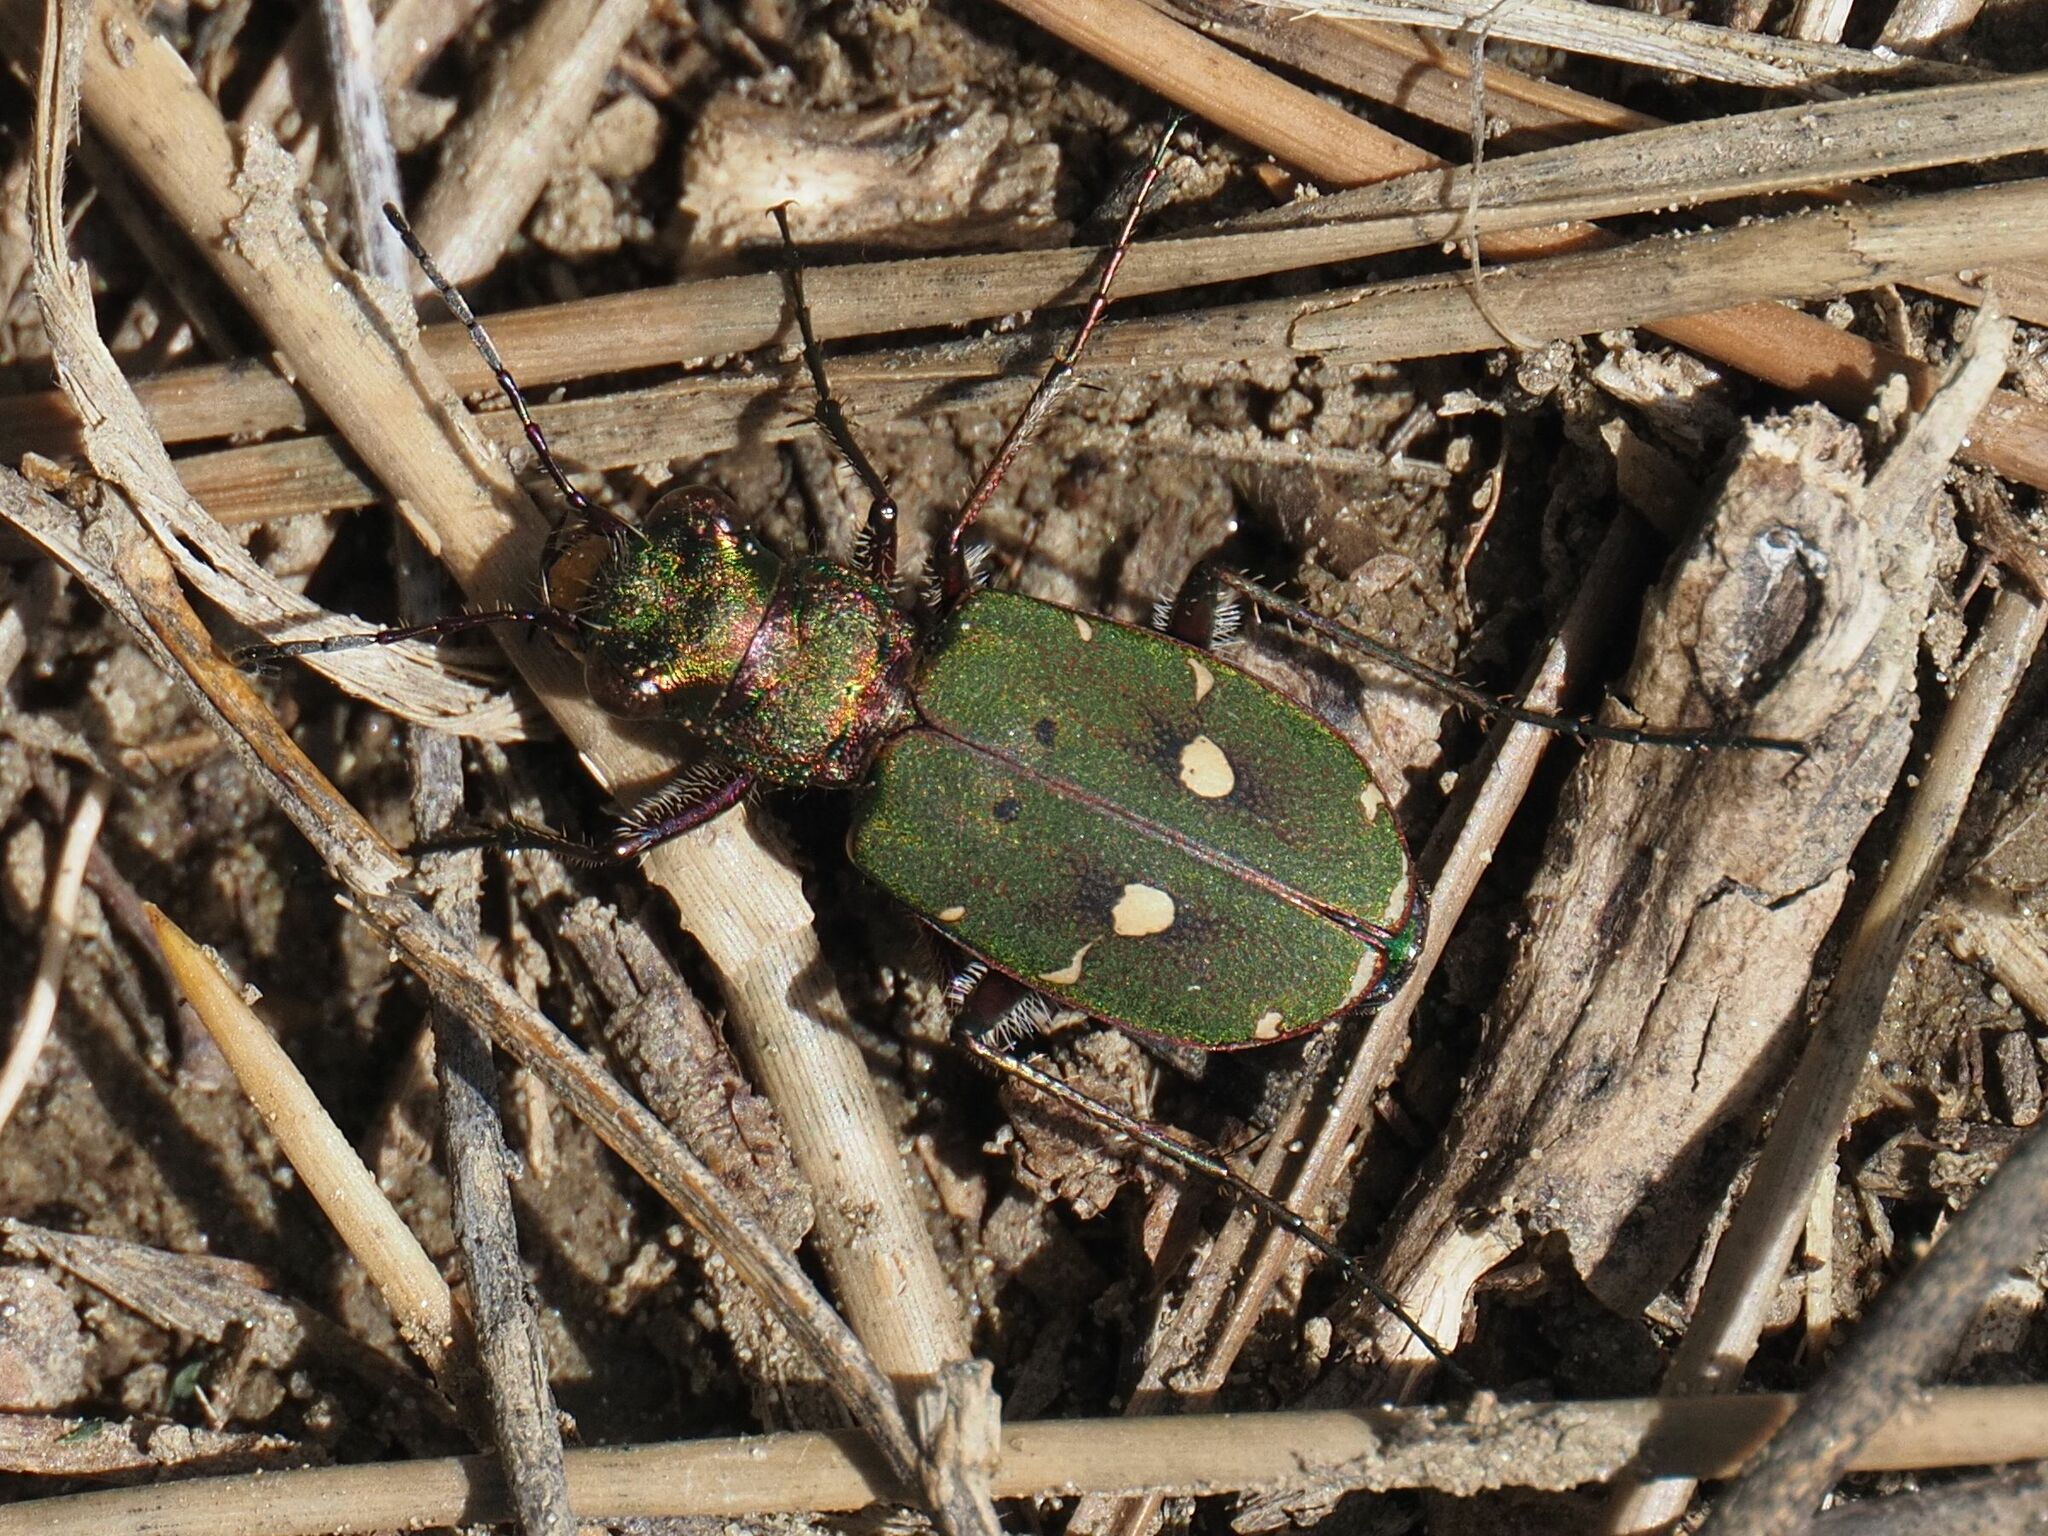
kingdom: Animalia
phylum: Arthropoda
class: Insecta
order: Coleoptera
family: Carabidae
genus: Cicindela
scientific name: Cicindela campestris
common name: Common tiger beetle
